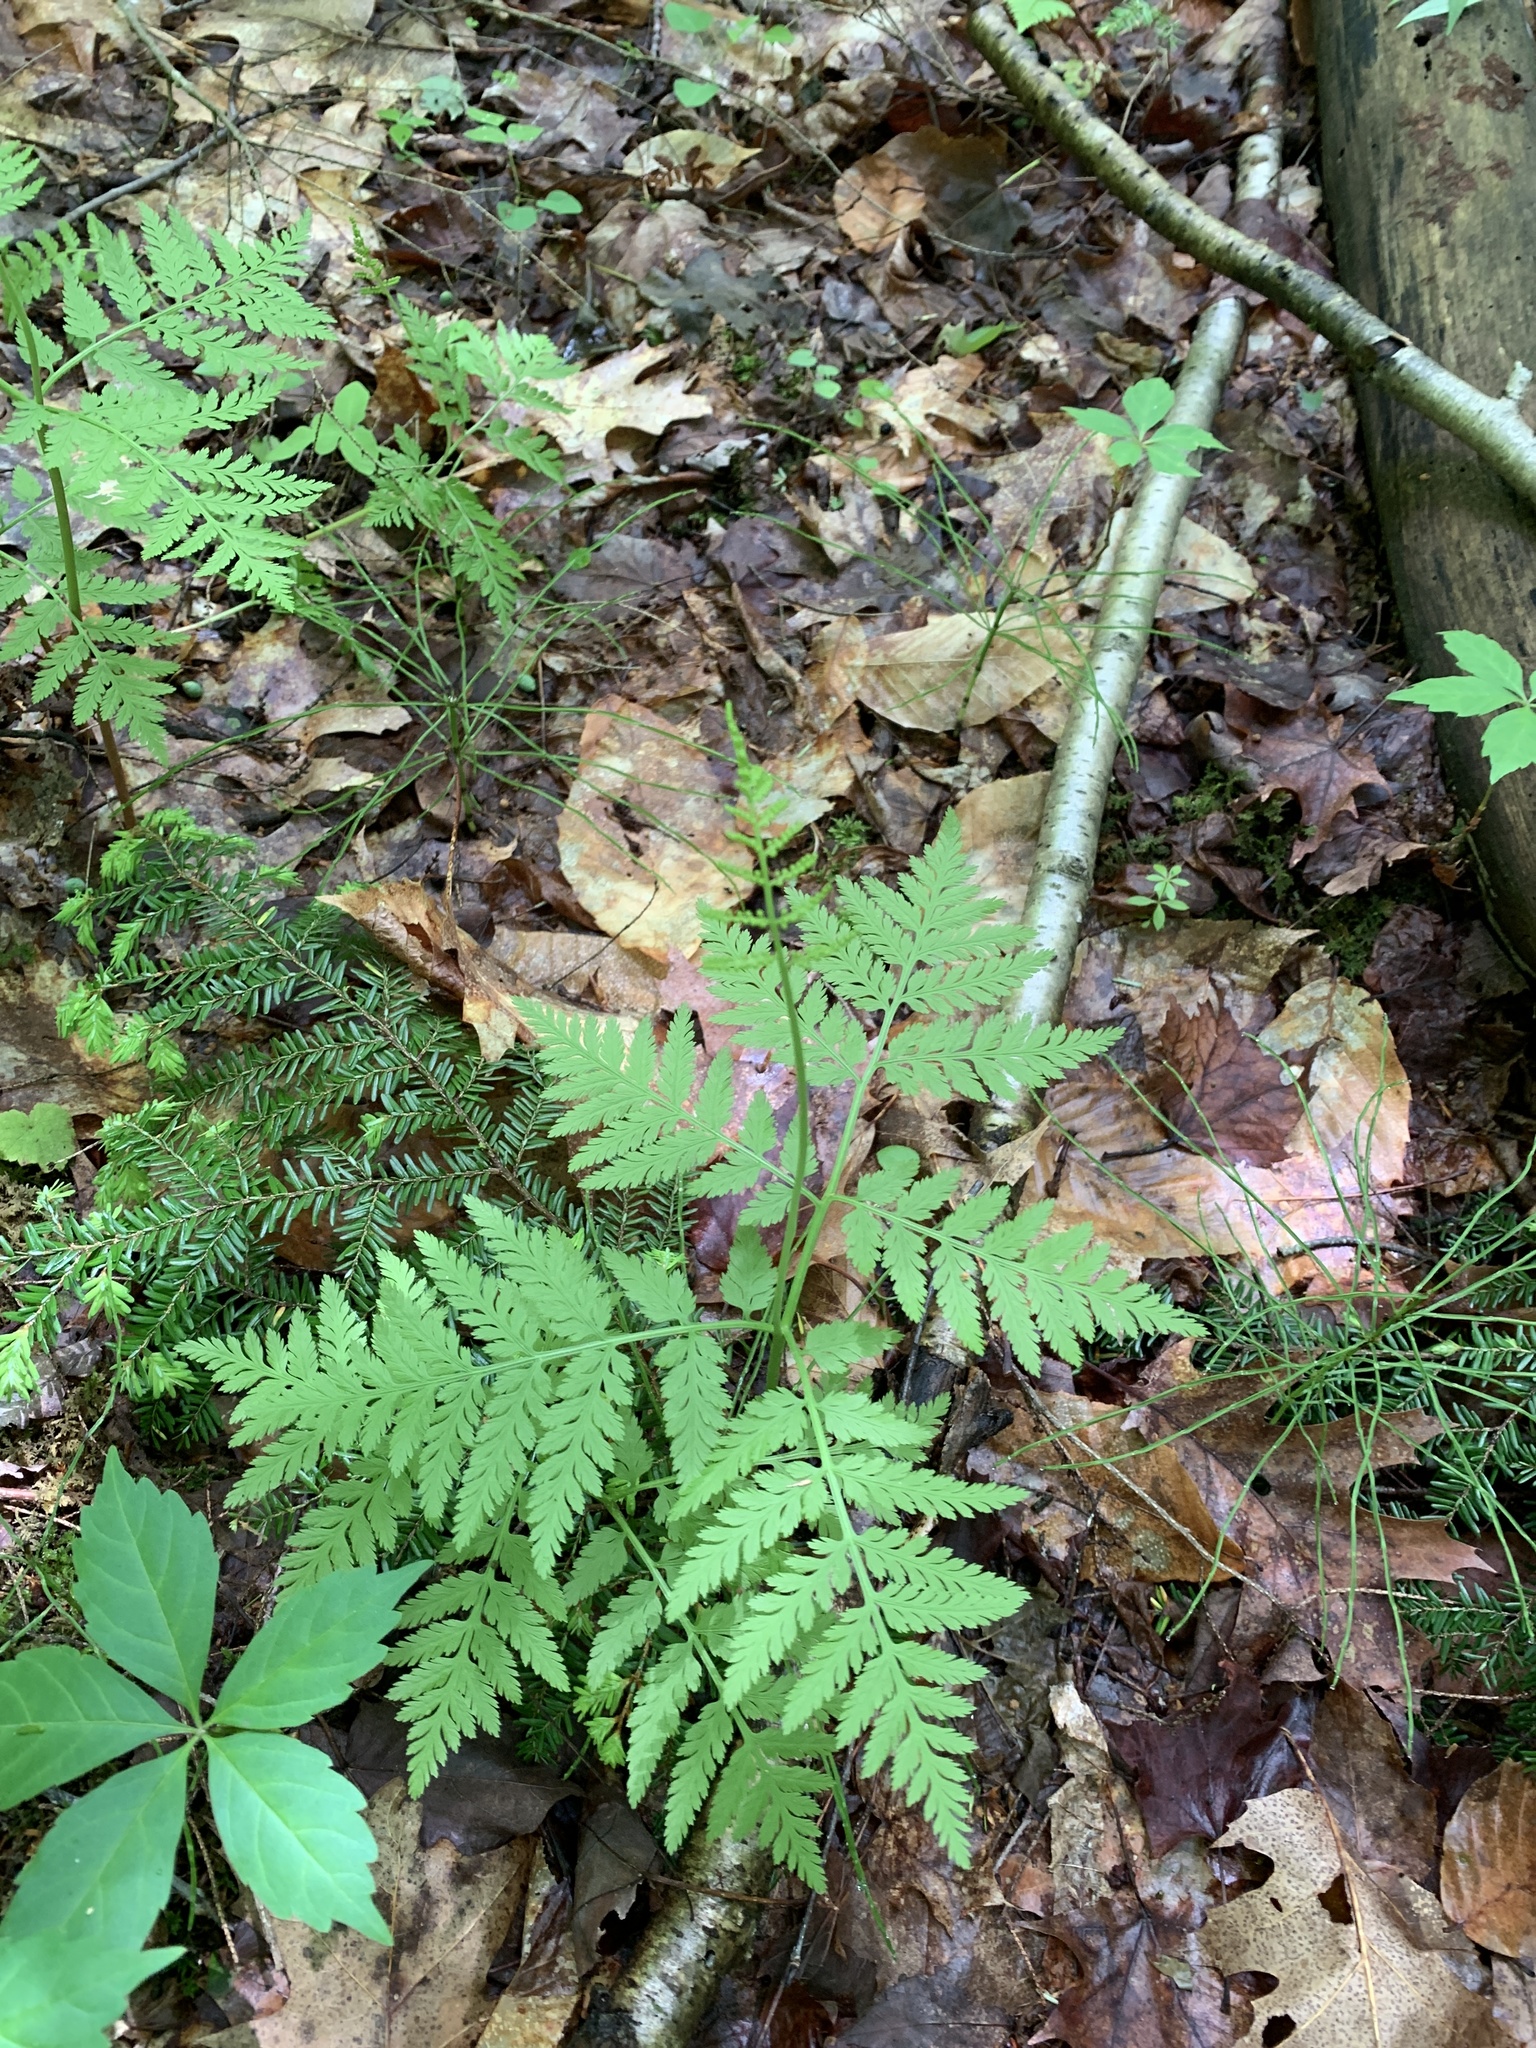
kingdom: Plantae
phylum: Tracheophyta
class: Polypodiopsida
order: Ophioglossales
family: Ophioglossaceae
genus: Botrypus
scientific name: Botrypus virginianus
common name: Common grapefern
